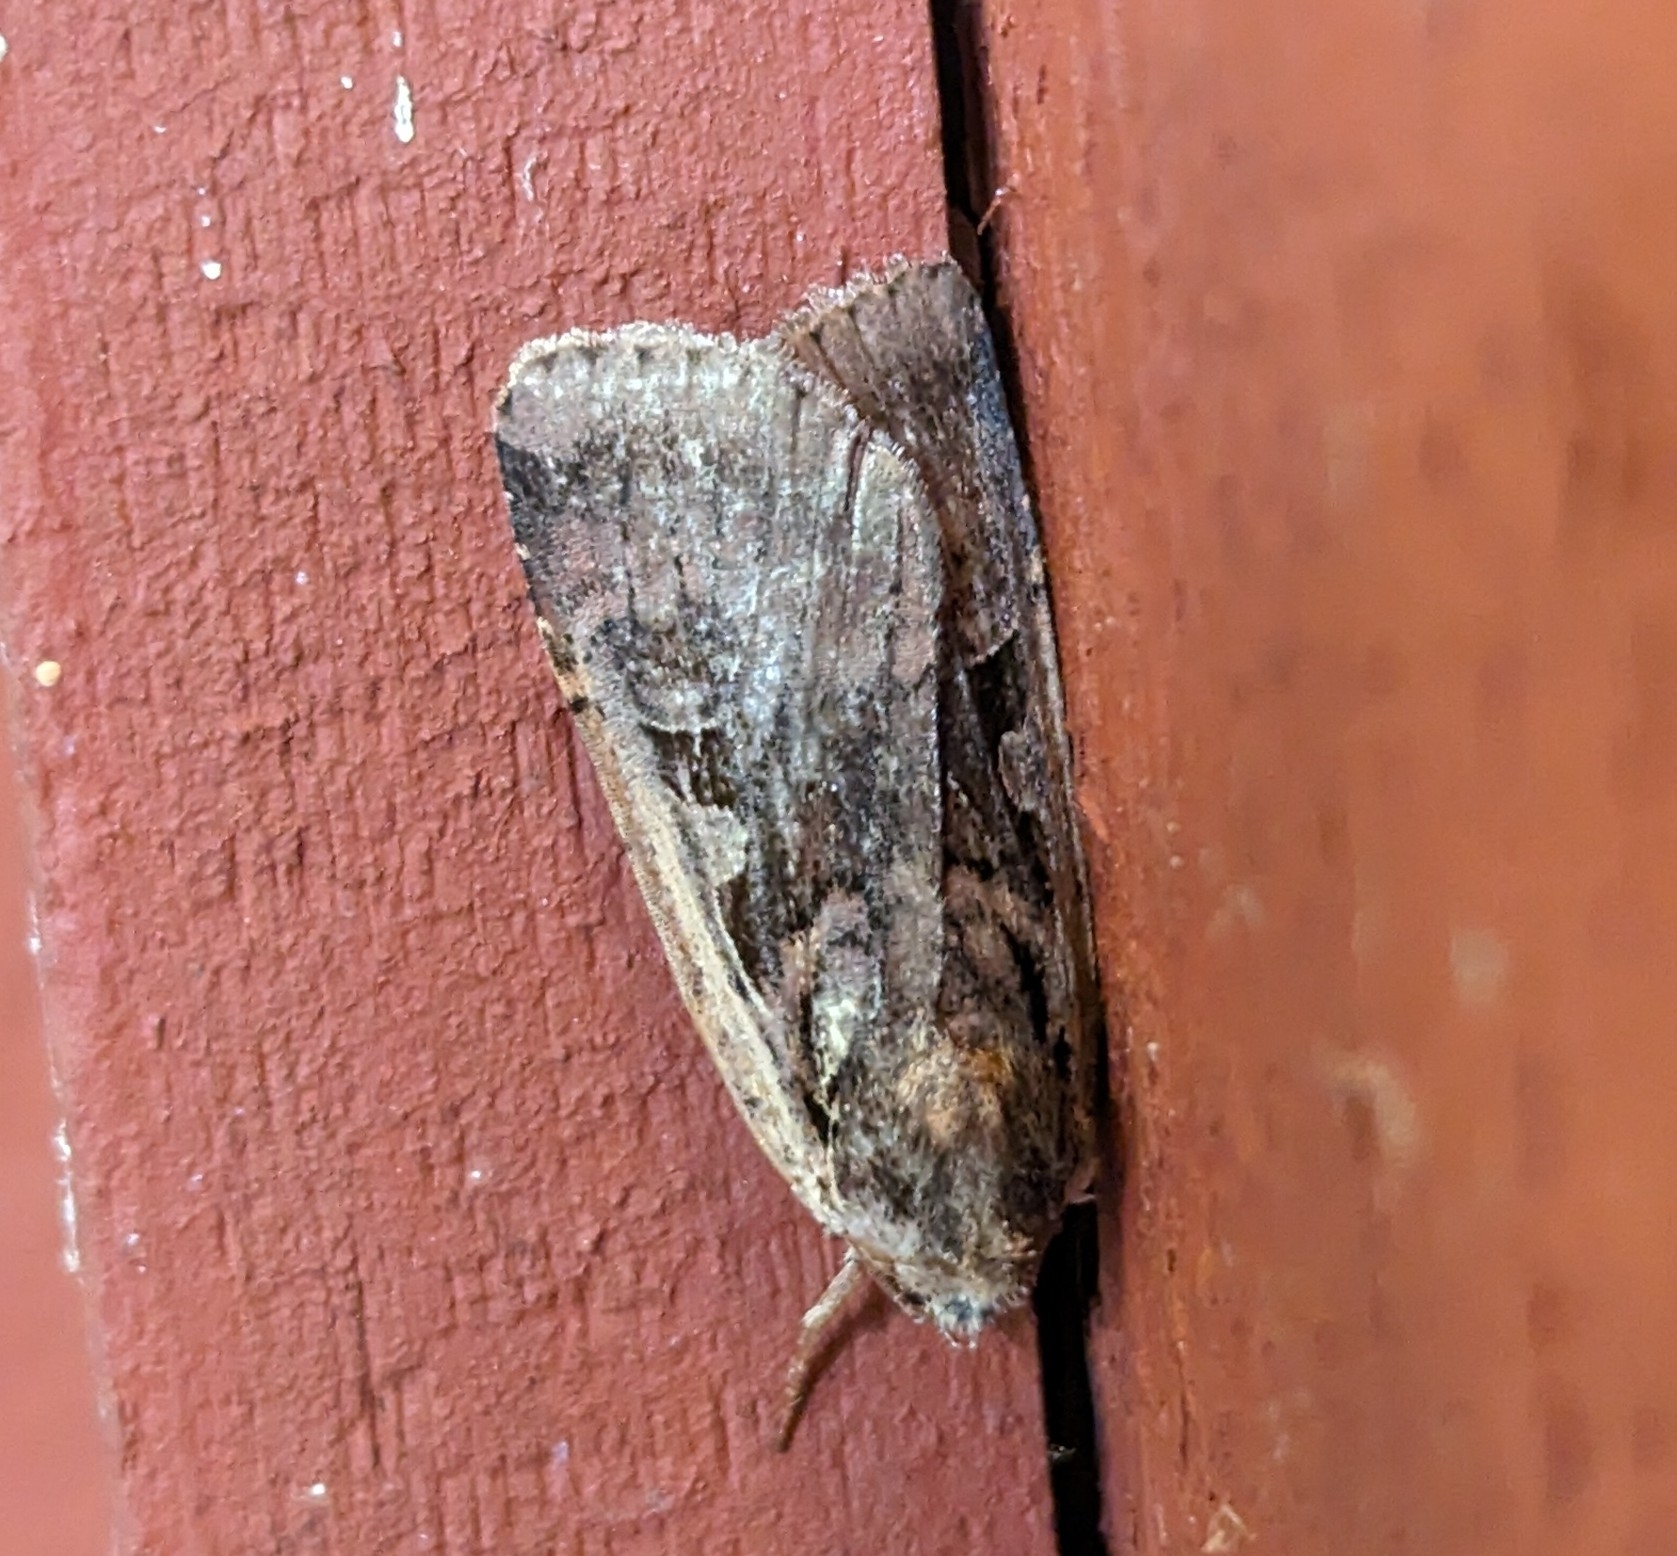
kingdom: Animalia
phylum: Arthropoda
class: Insecta
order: Lepidoptera
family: Noctuidae
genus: Parabagrotis
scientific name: Parabagrotis sulinaris
